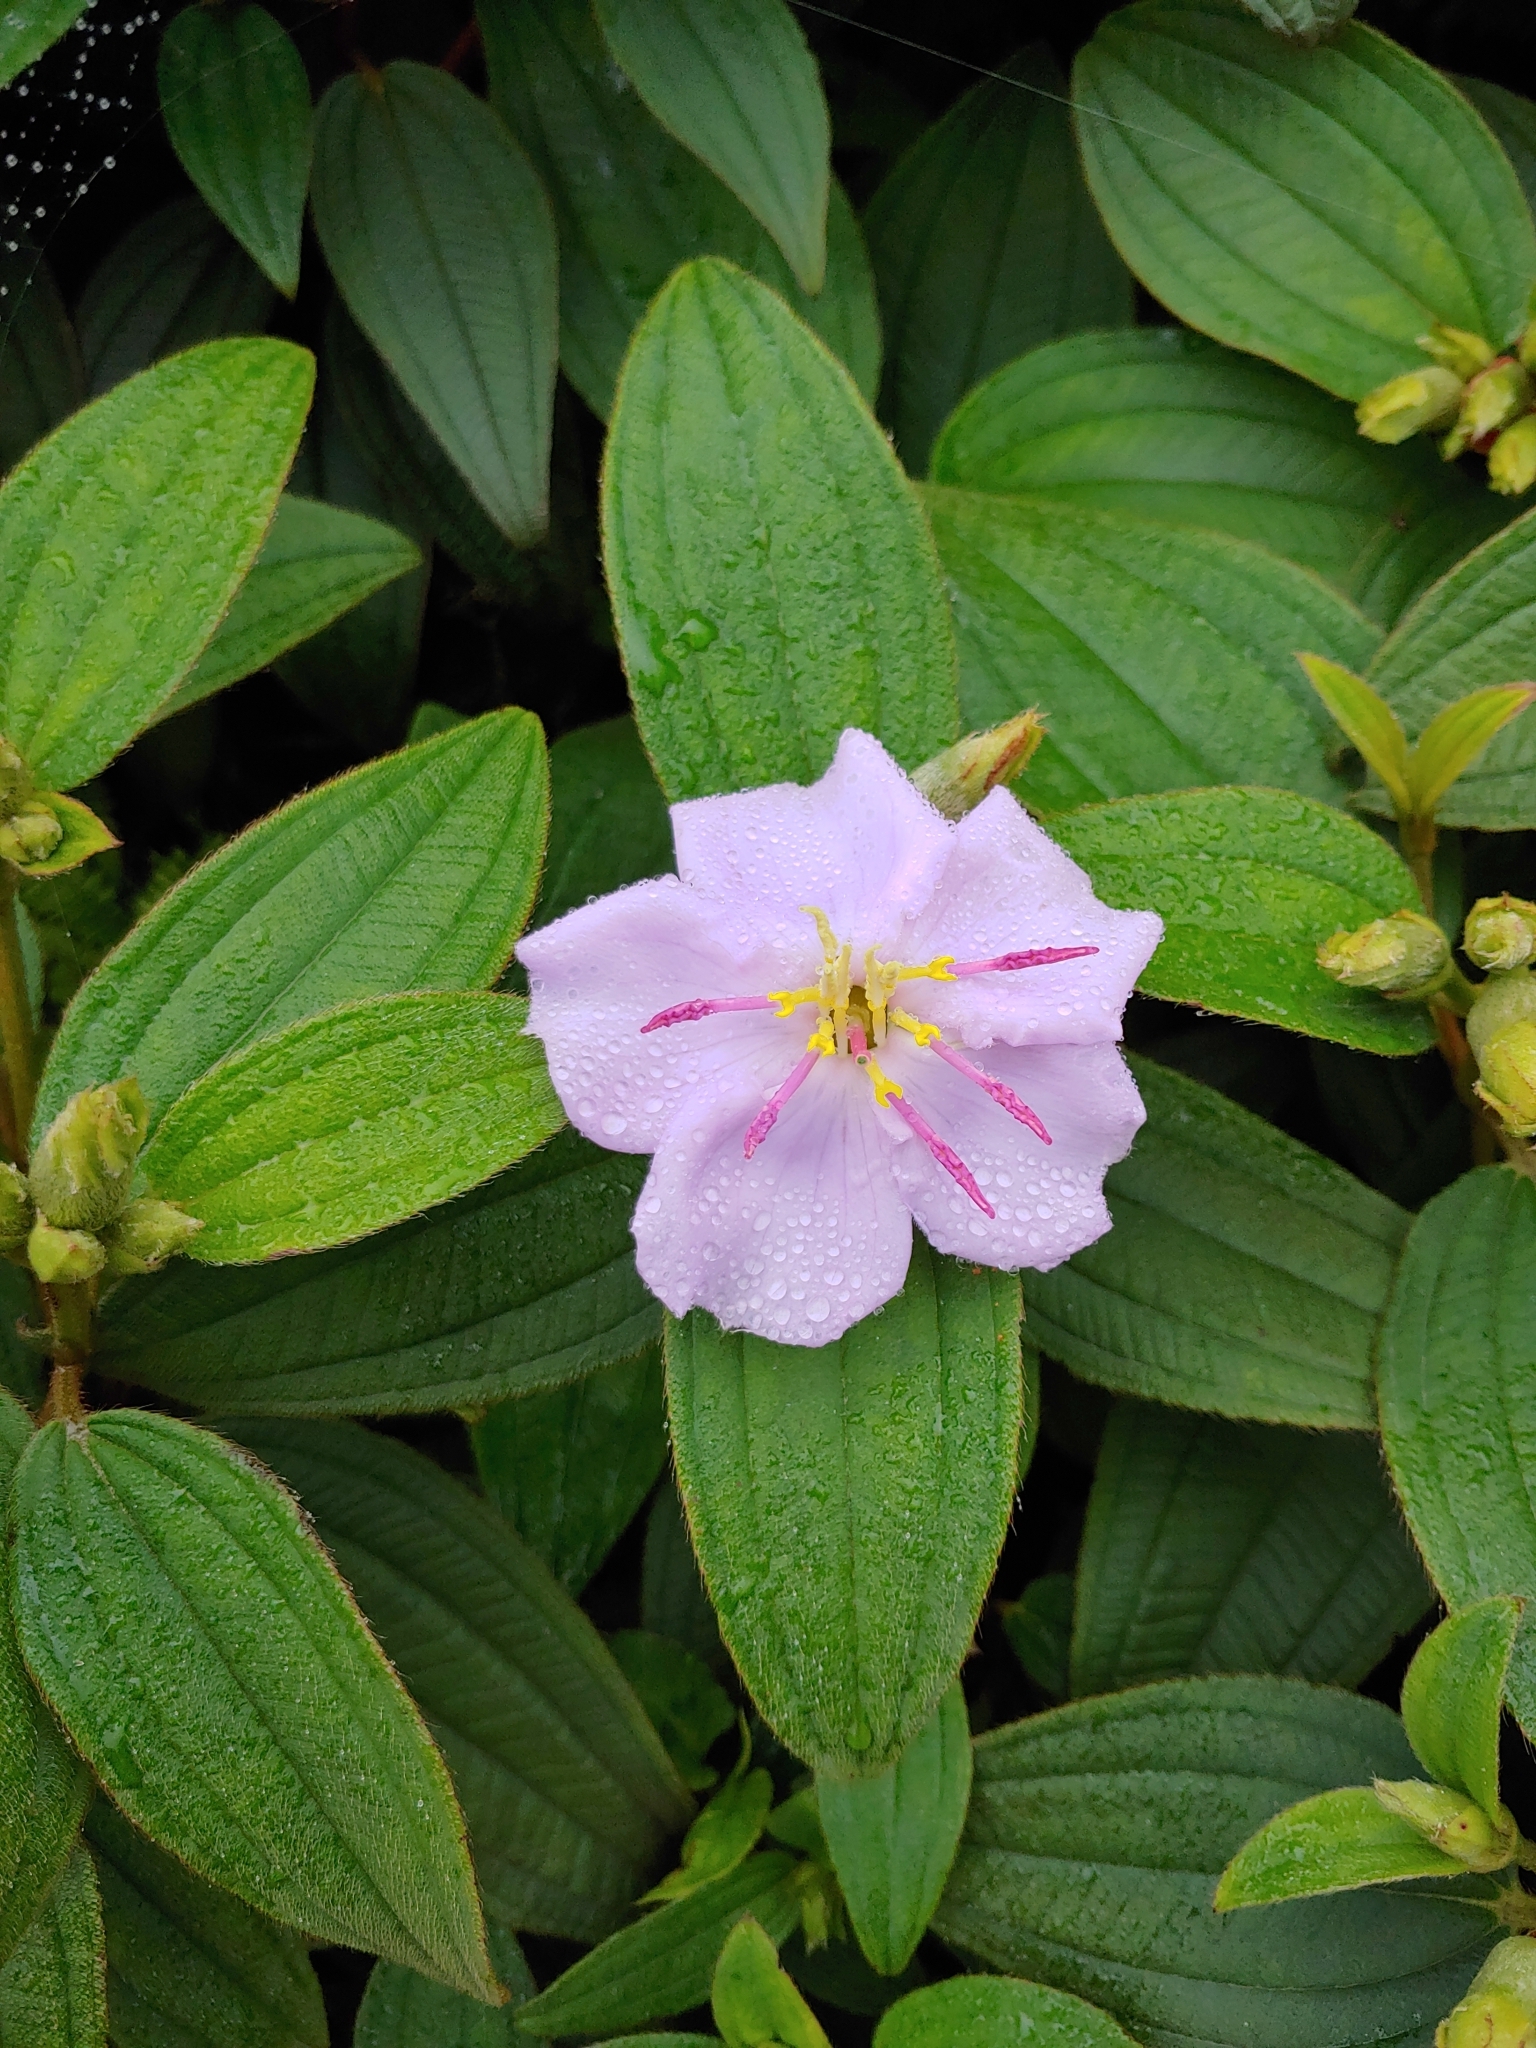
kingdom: Plantae
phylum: Tracheophyta
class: Magnoliopsida
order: Myrtales
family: Melastomataceae
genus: Melastoma
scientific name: Melastoma malabathricum
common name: Indian-rhododendron
